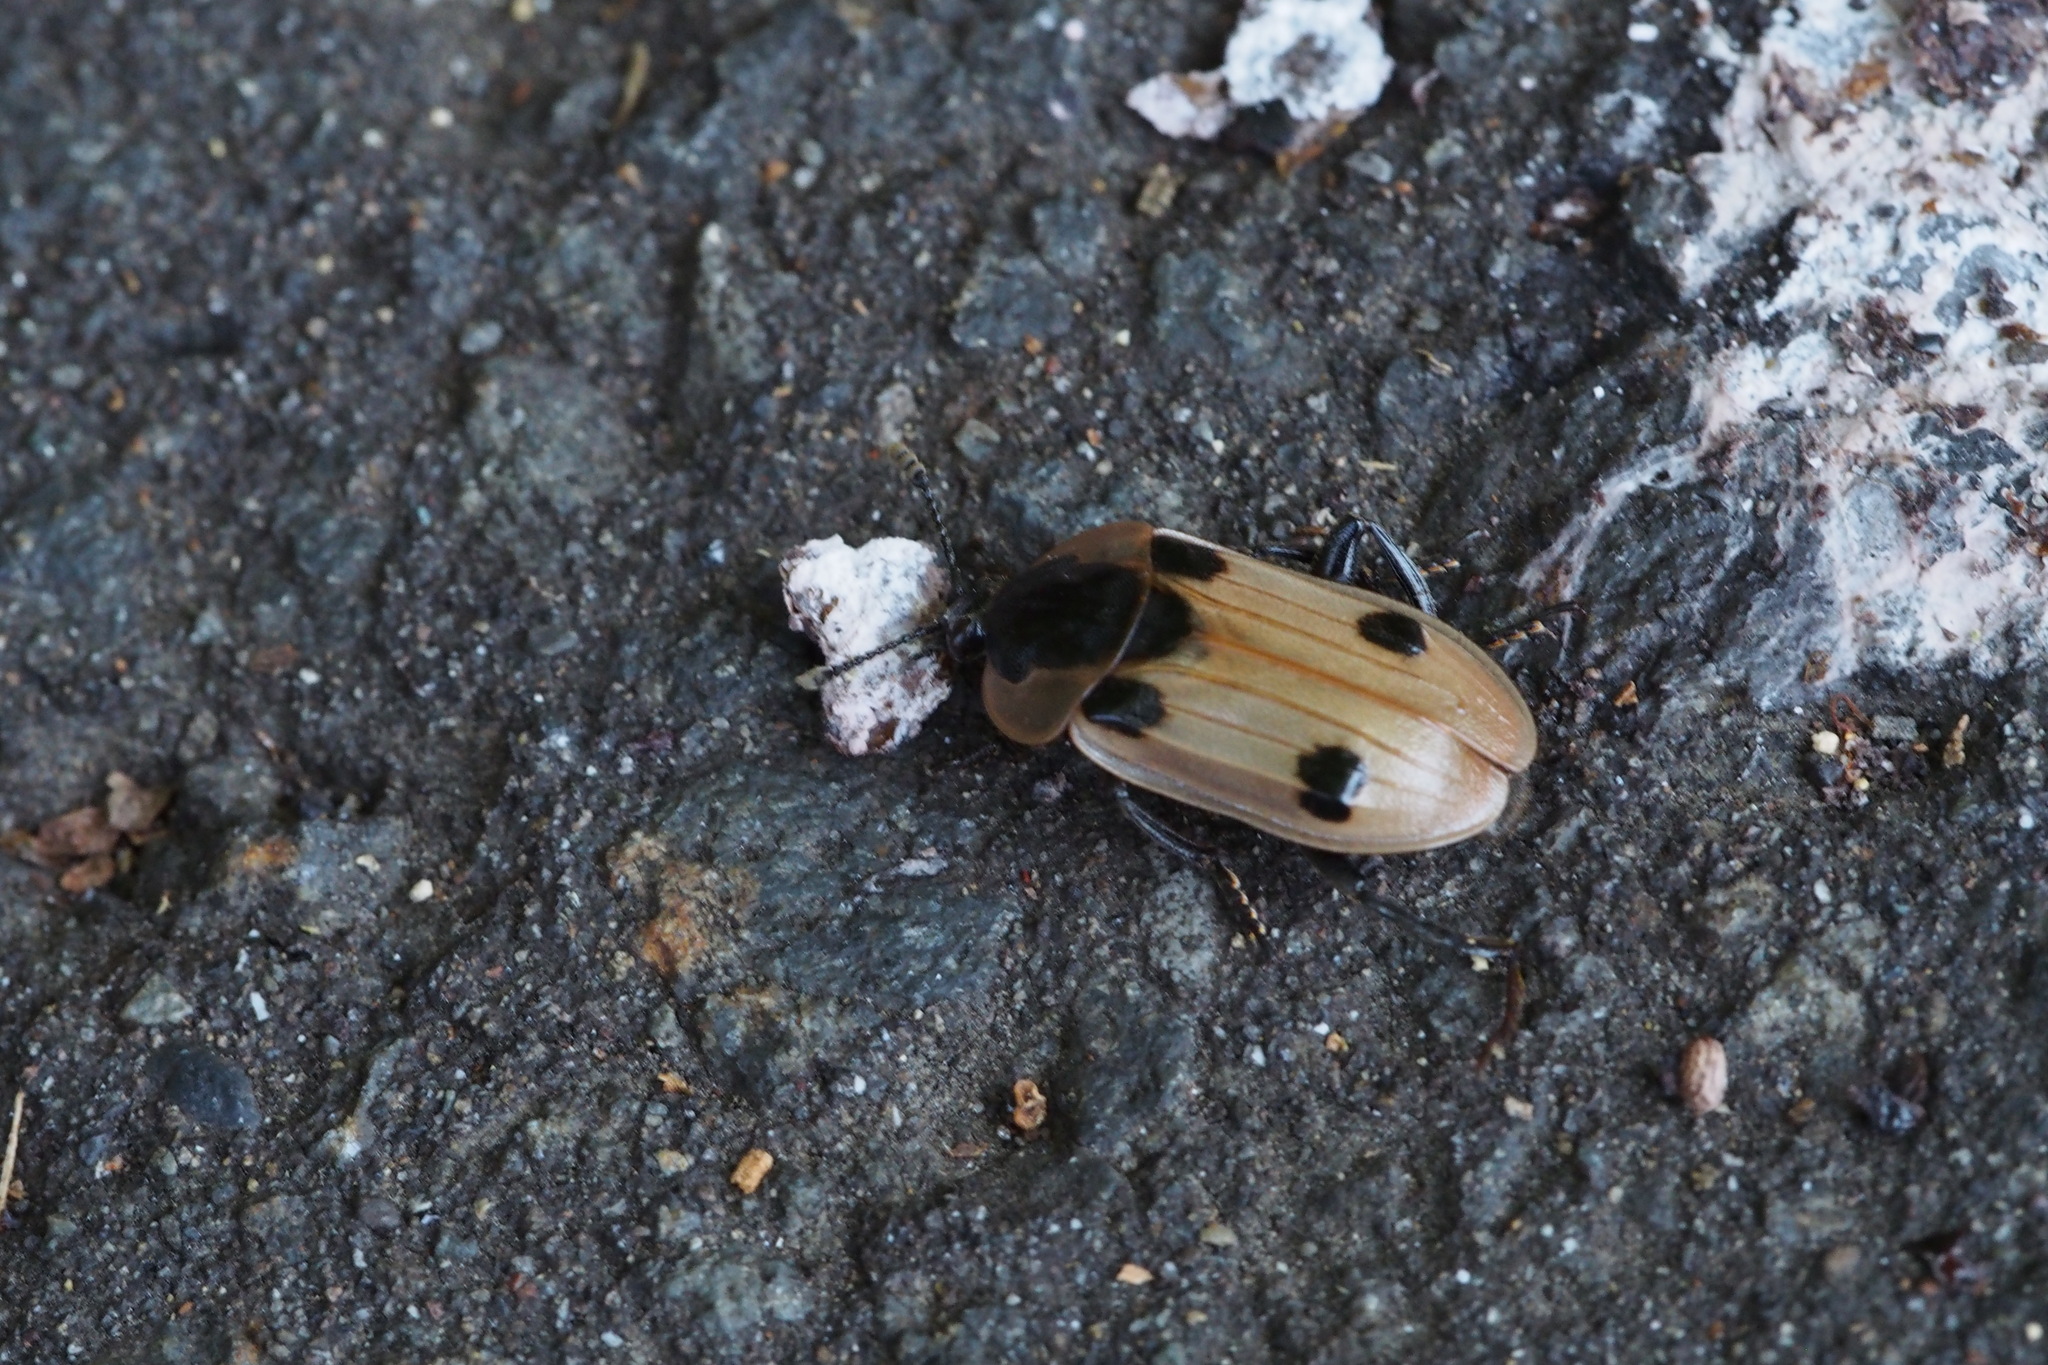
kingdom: Animalia
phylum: Arthropoda
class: Insecta
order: Coleoptera
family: Staphylinidae
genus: Dendroxena
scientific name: Dendroxena sexcarinata
